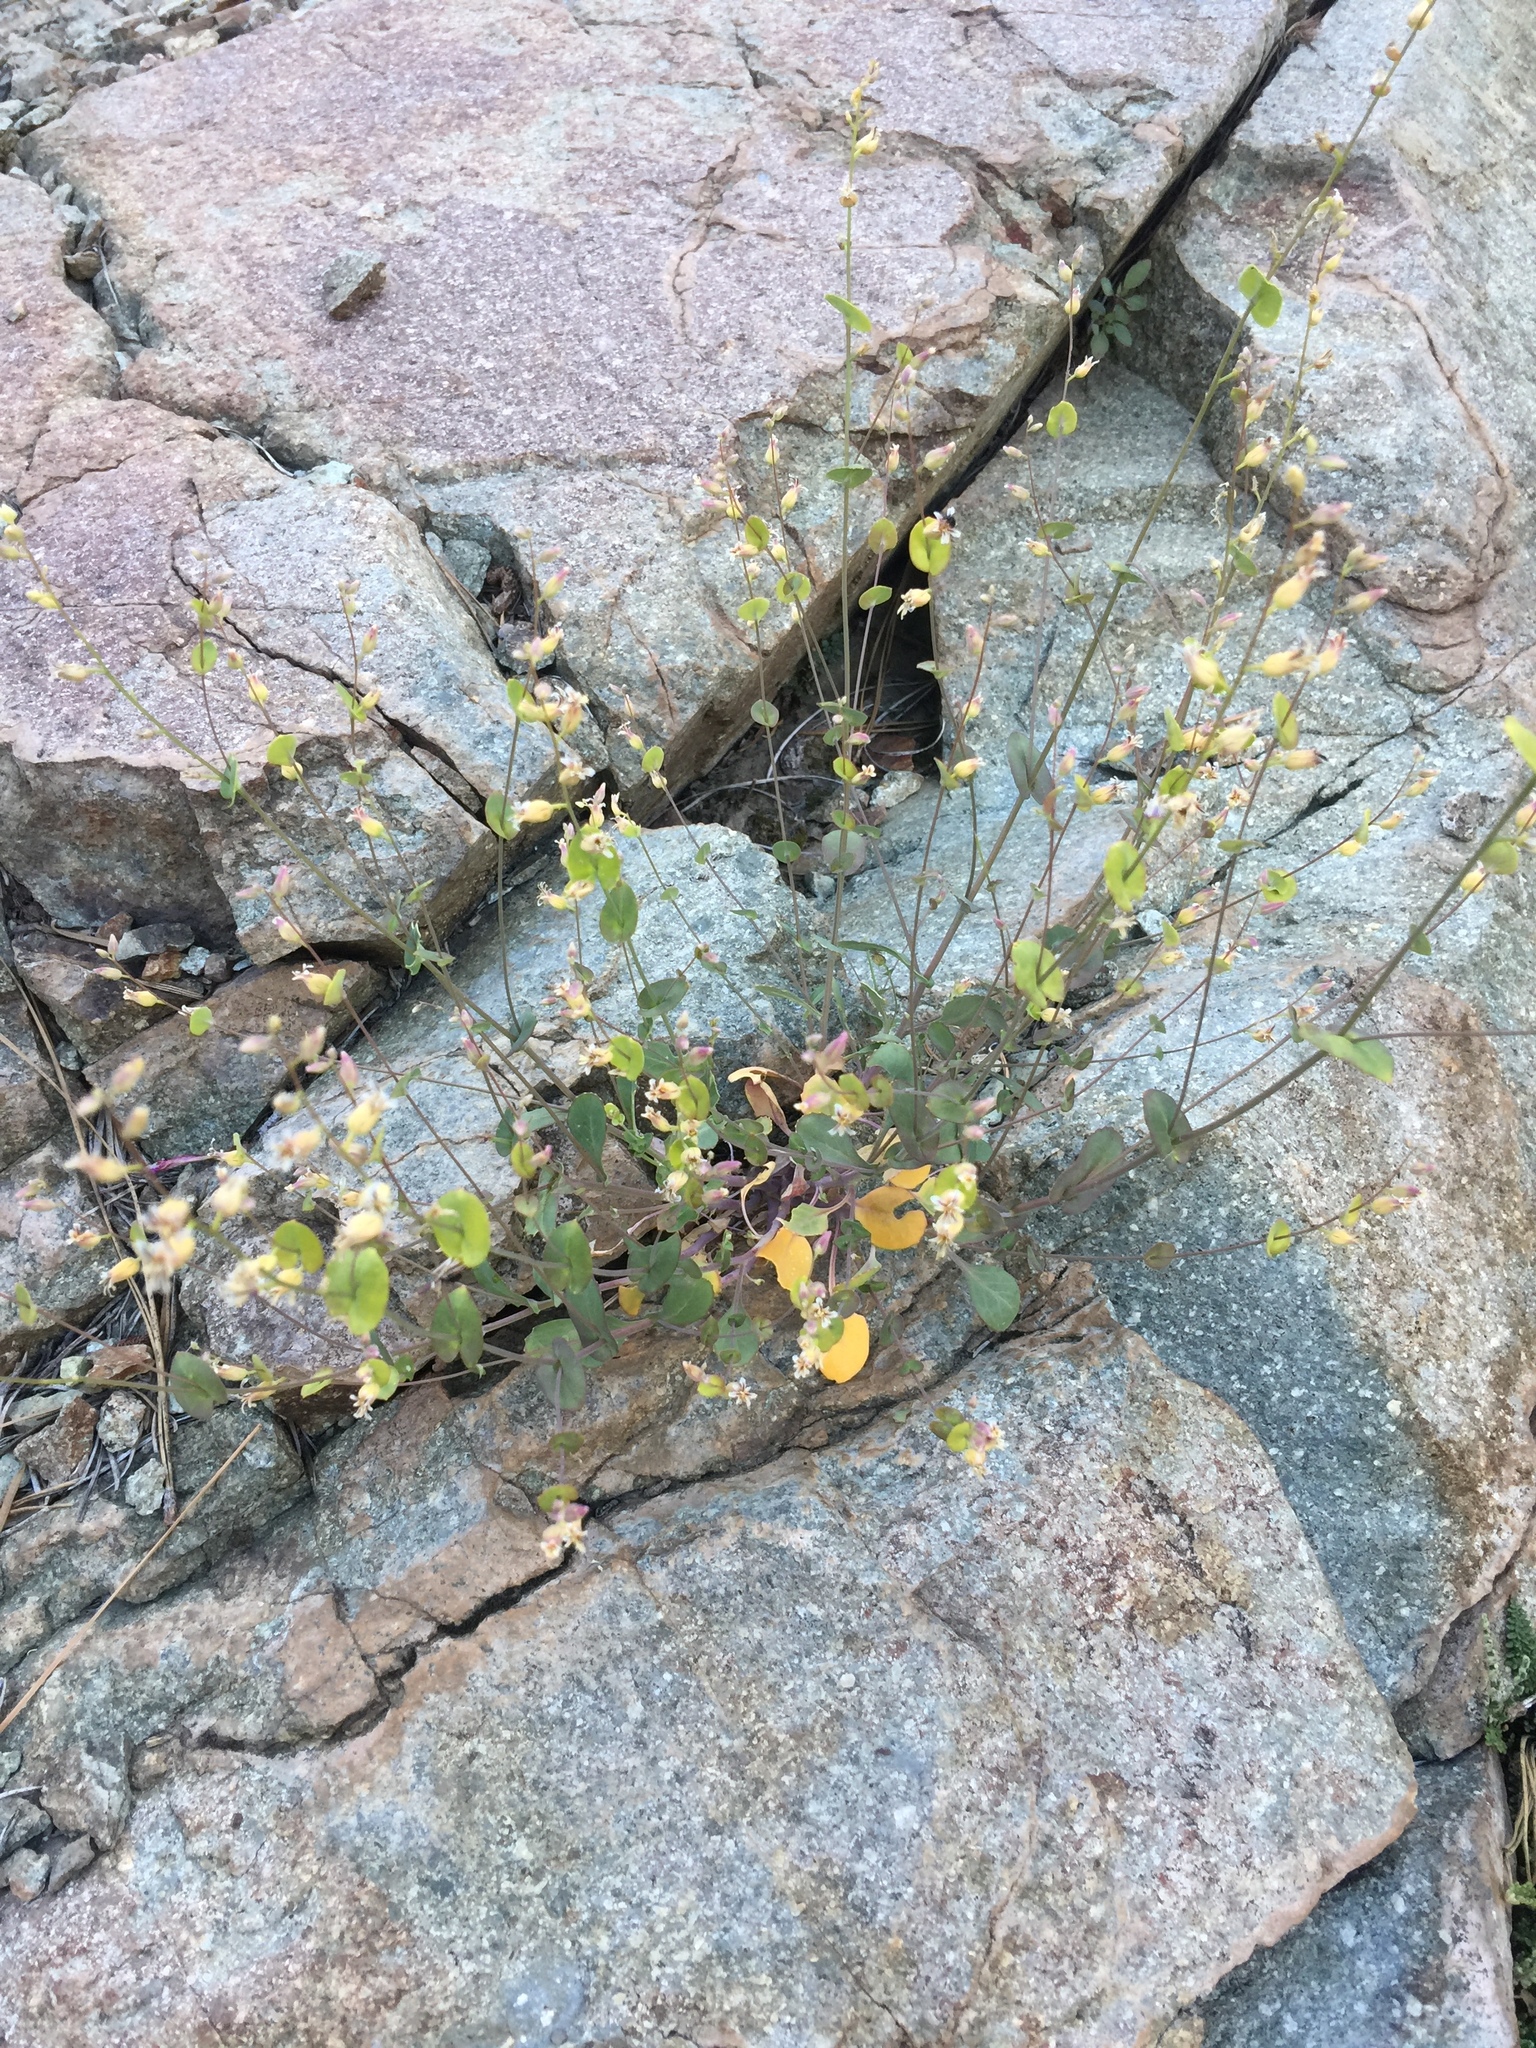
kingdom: Plantae
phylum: Tracheophyta
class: Magnoliopsida
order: Brassicales
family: Brassicaceae
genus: Streptanthus
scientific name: Streptanthus tortuosus
